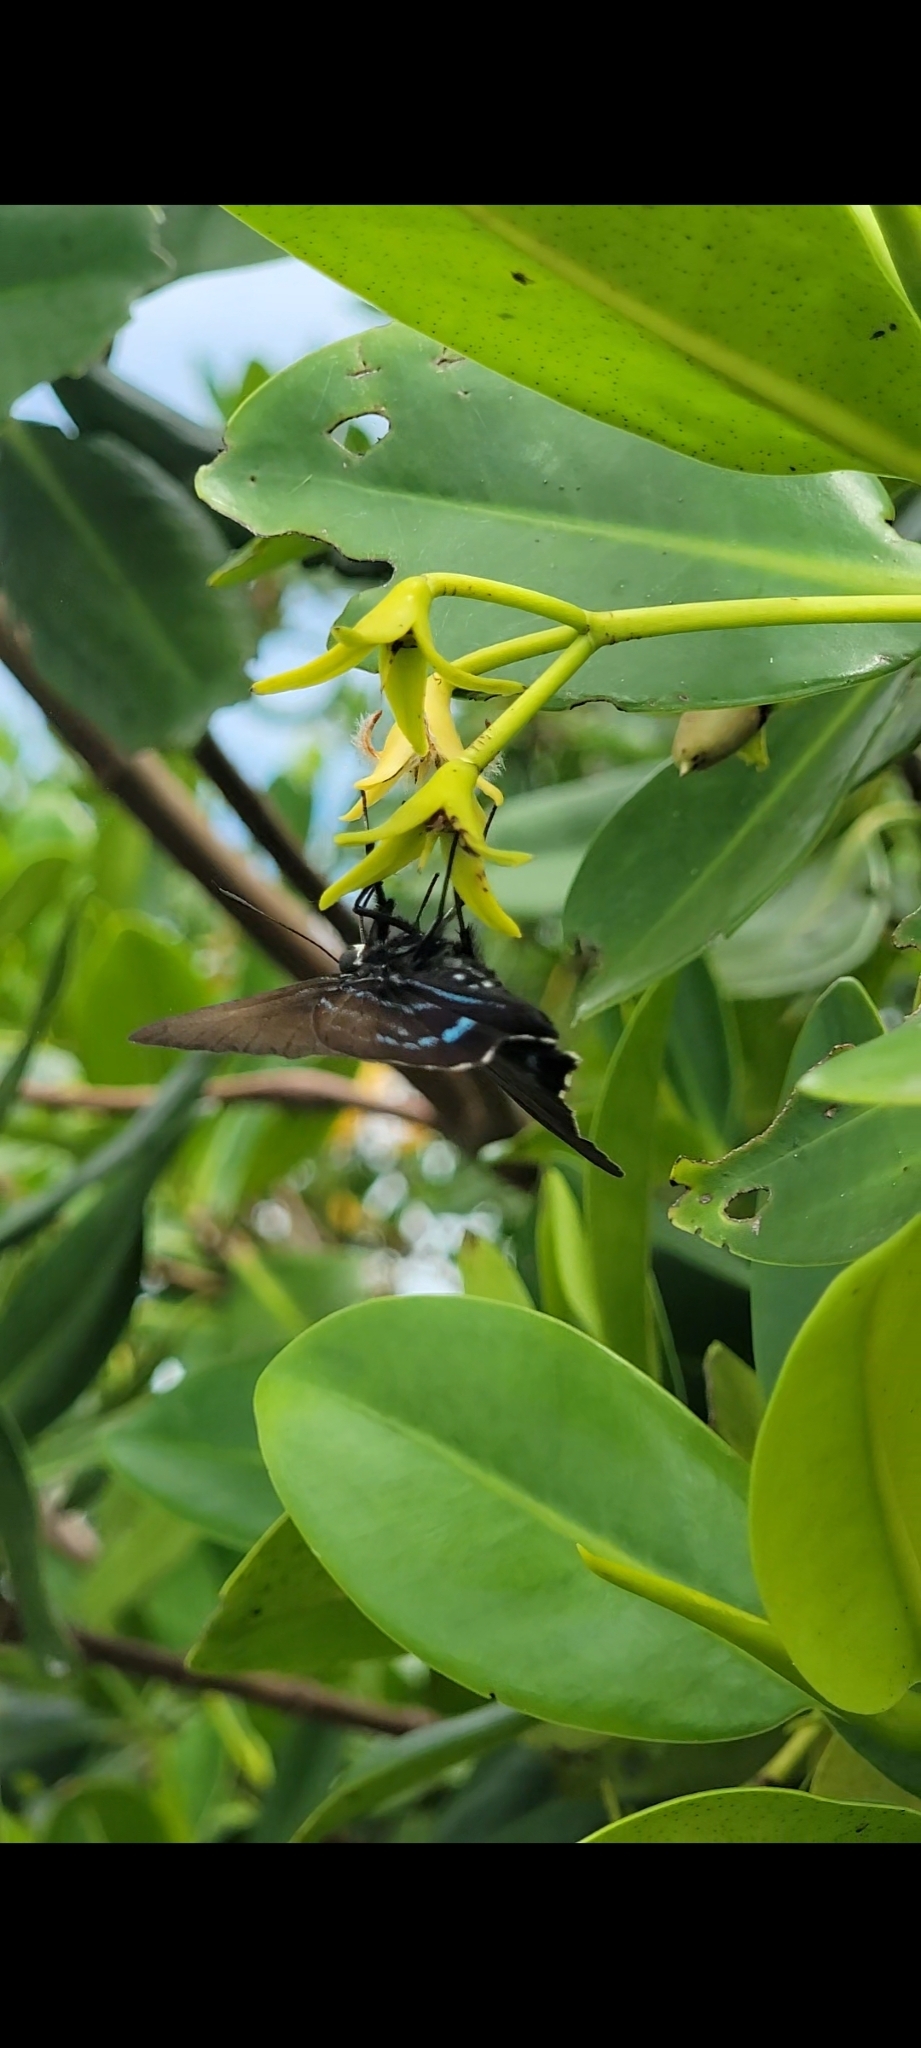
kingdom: Animalia
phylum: Arthropoda
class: Insecta
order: Lepidoptera
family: Hesperiidae
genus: Phocides
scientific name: Phocides pigmalion
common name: Mangrove skipper
